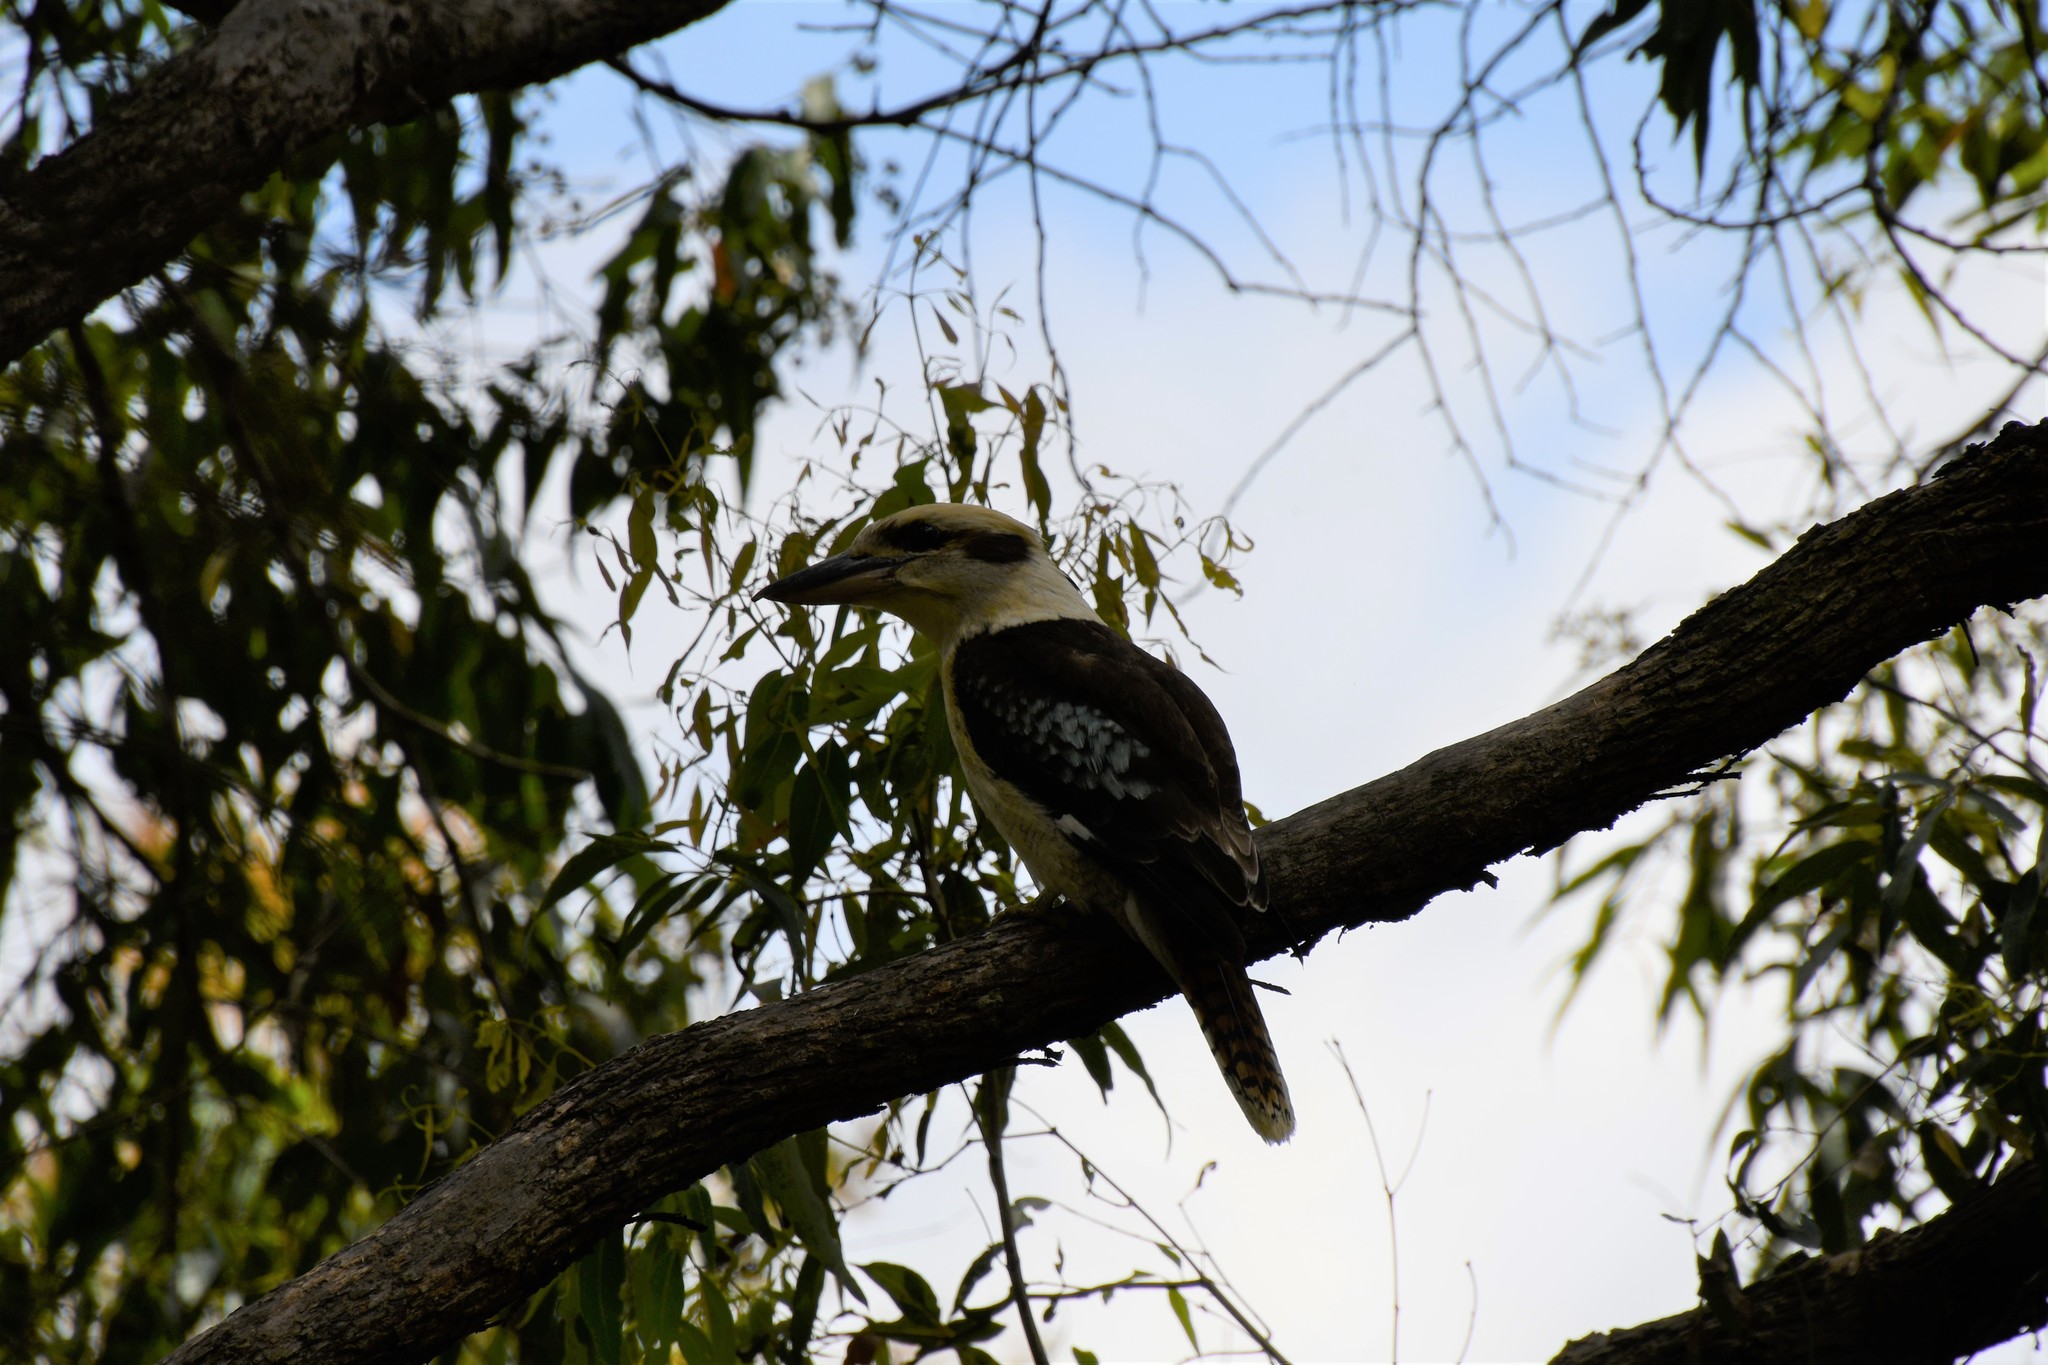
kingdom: Animalia
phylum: Chordata
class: Aves
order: Coraciiformes
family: Alcedinidae
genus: Dacelo
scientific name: Dacelo novaeguineae
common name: Laughing kookaburra
